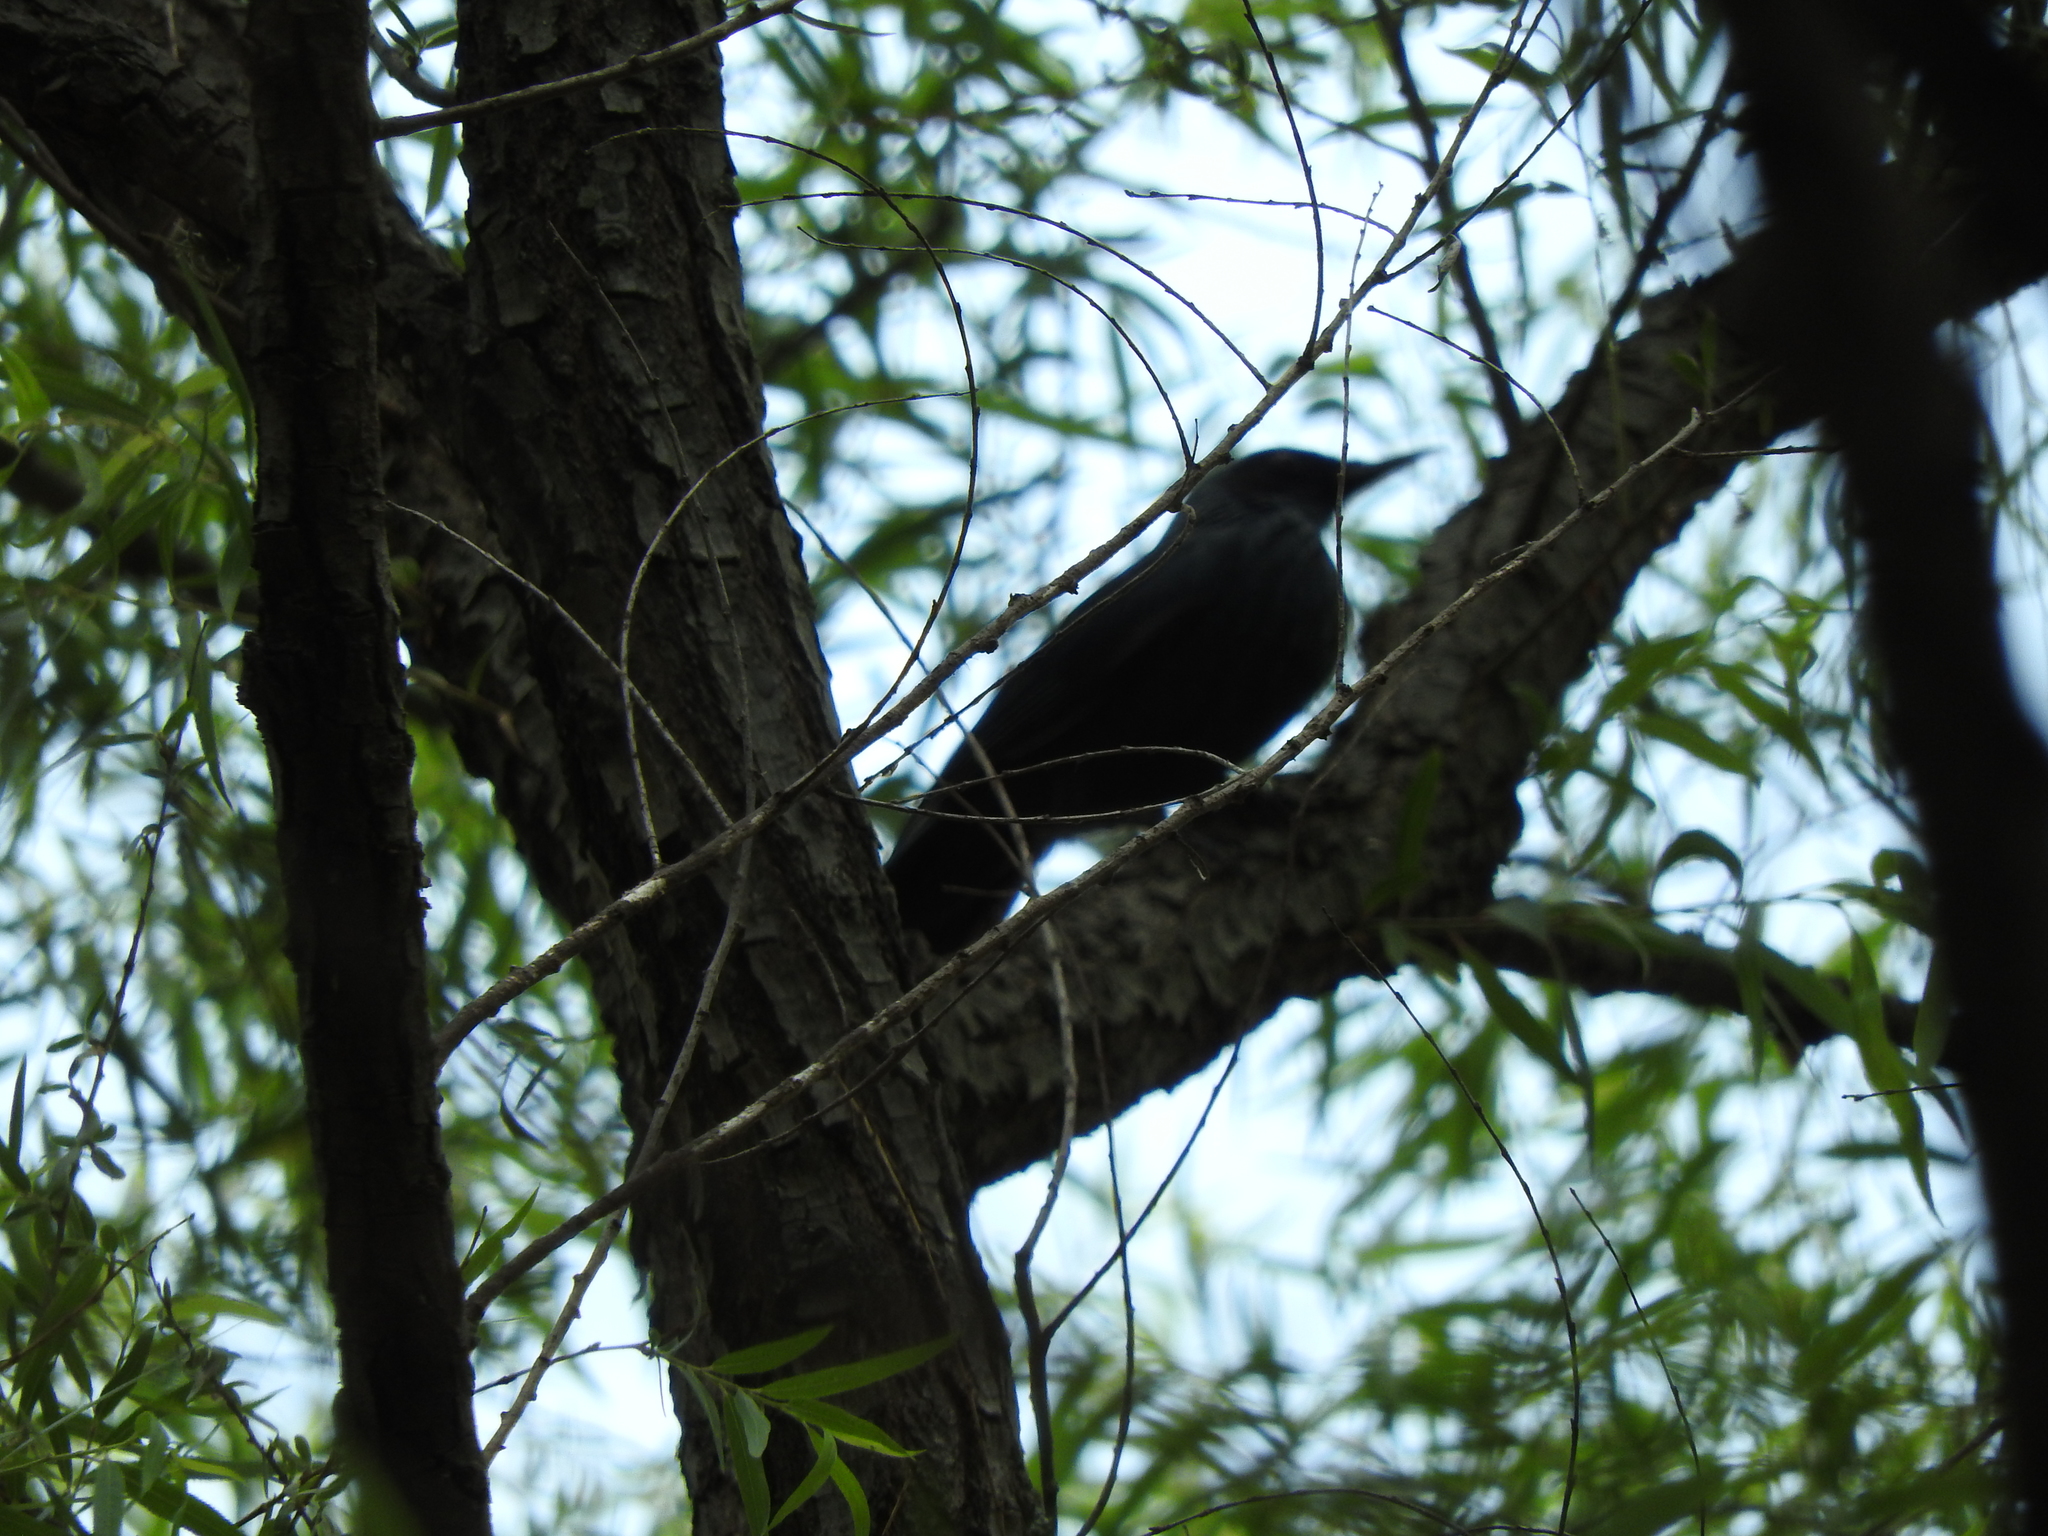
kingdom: Animalia
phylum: Chordata
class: Aves
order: Passeriformes
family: Mimidae
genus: Melanotis
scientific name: Melanotis caerulescens
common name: Blue mockingbird
